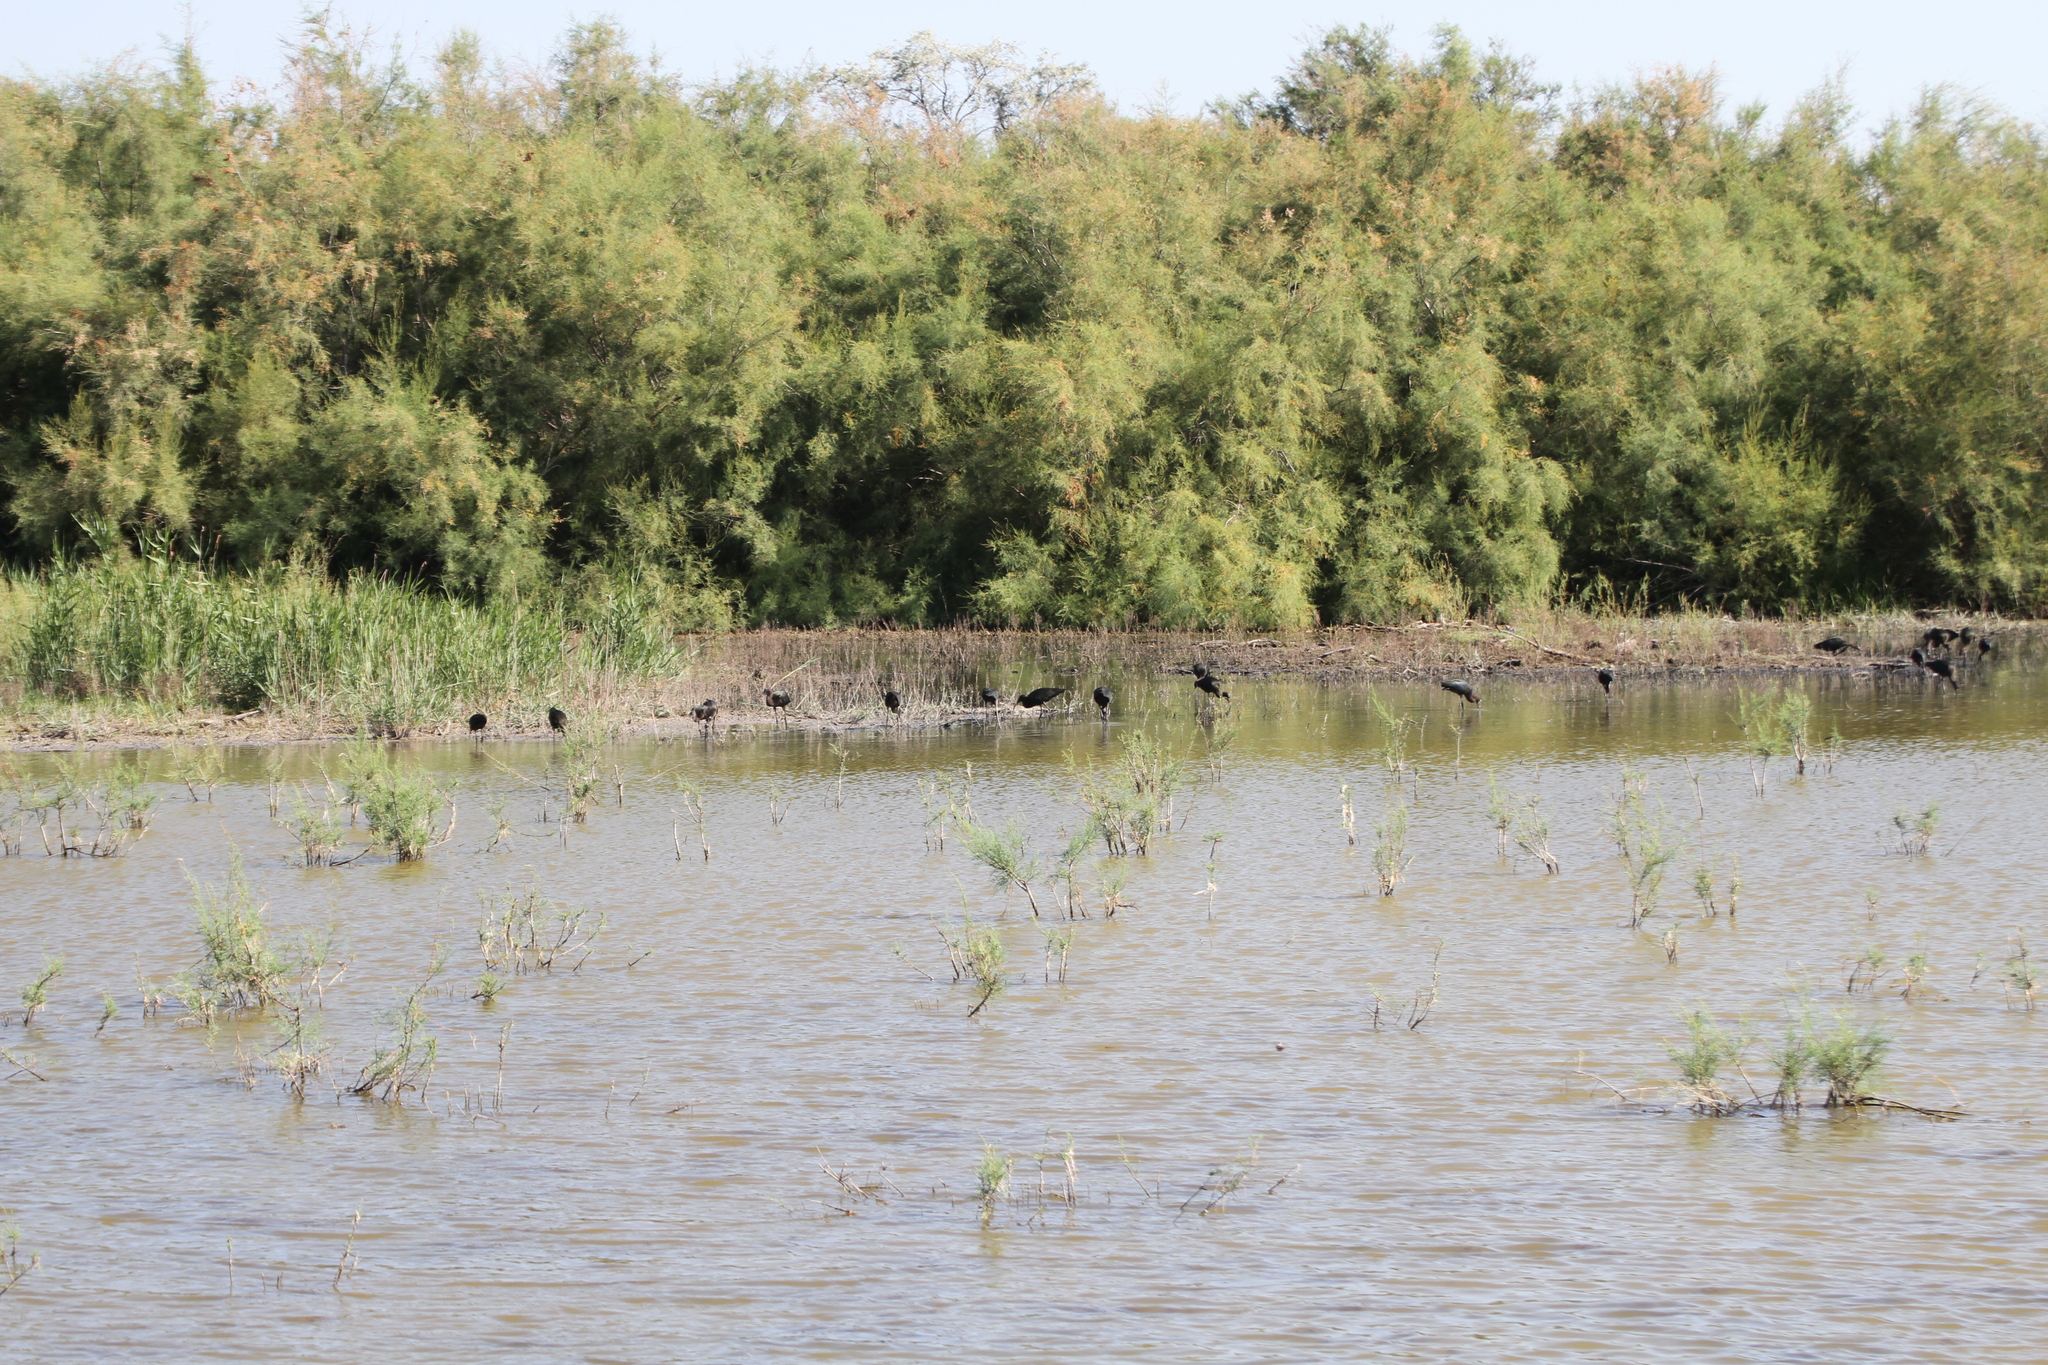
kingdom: Animalia
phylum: Chordata
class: Aves
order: Pelecaniformes
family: Threskiornithidae
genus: Plegadis
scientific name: Plegadis falcinellus
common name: Glossy ibis
